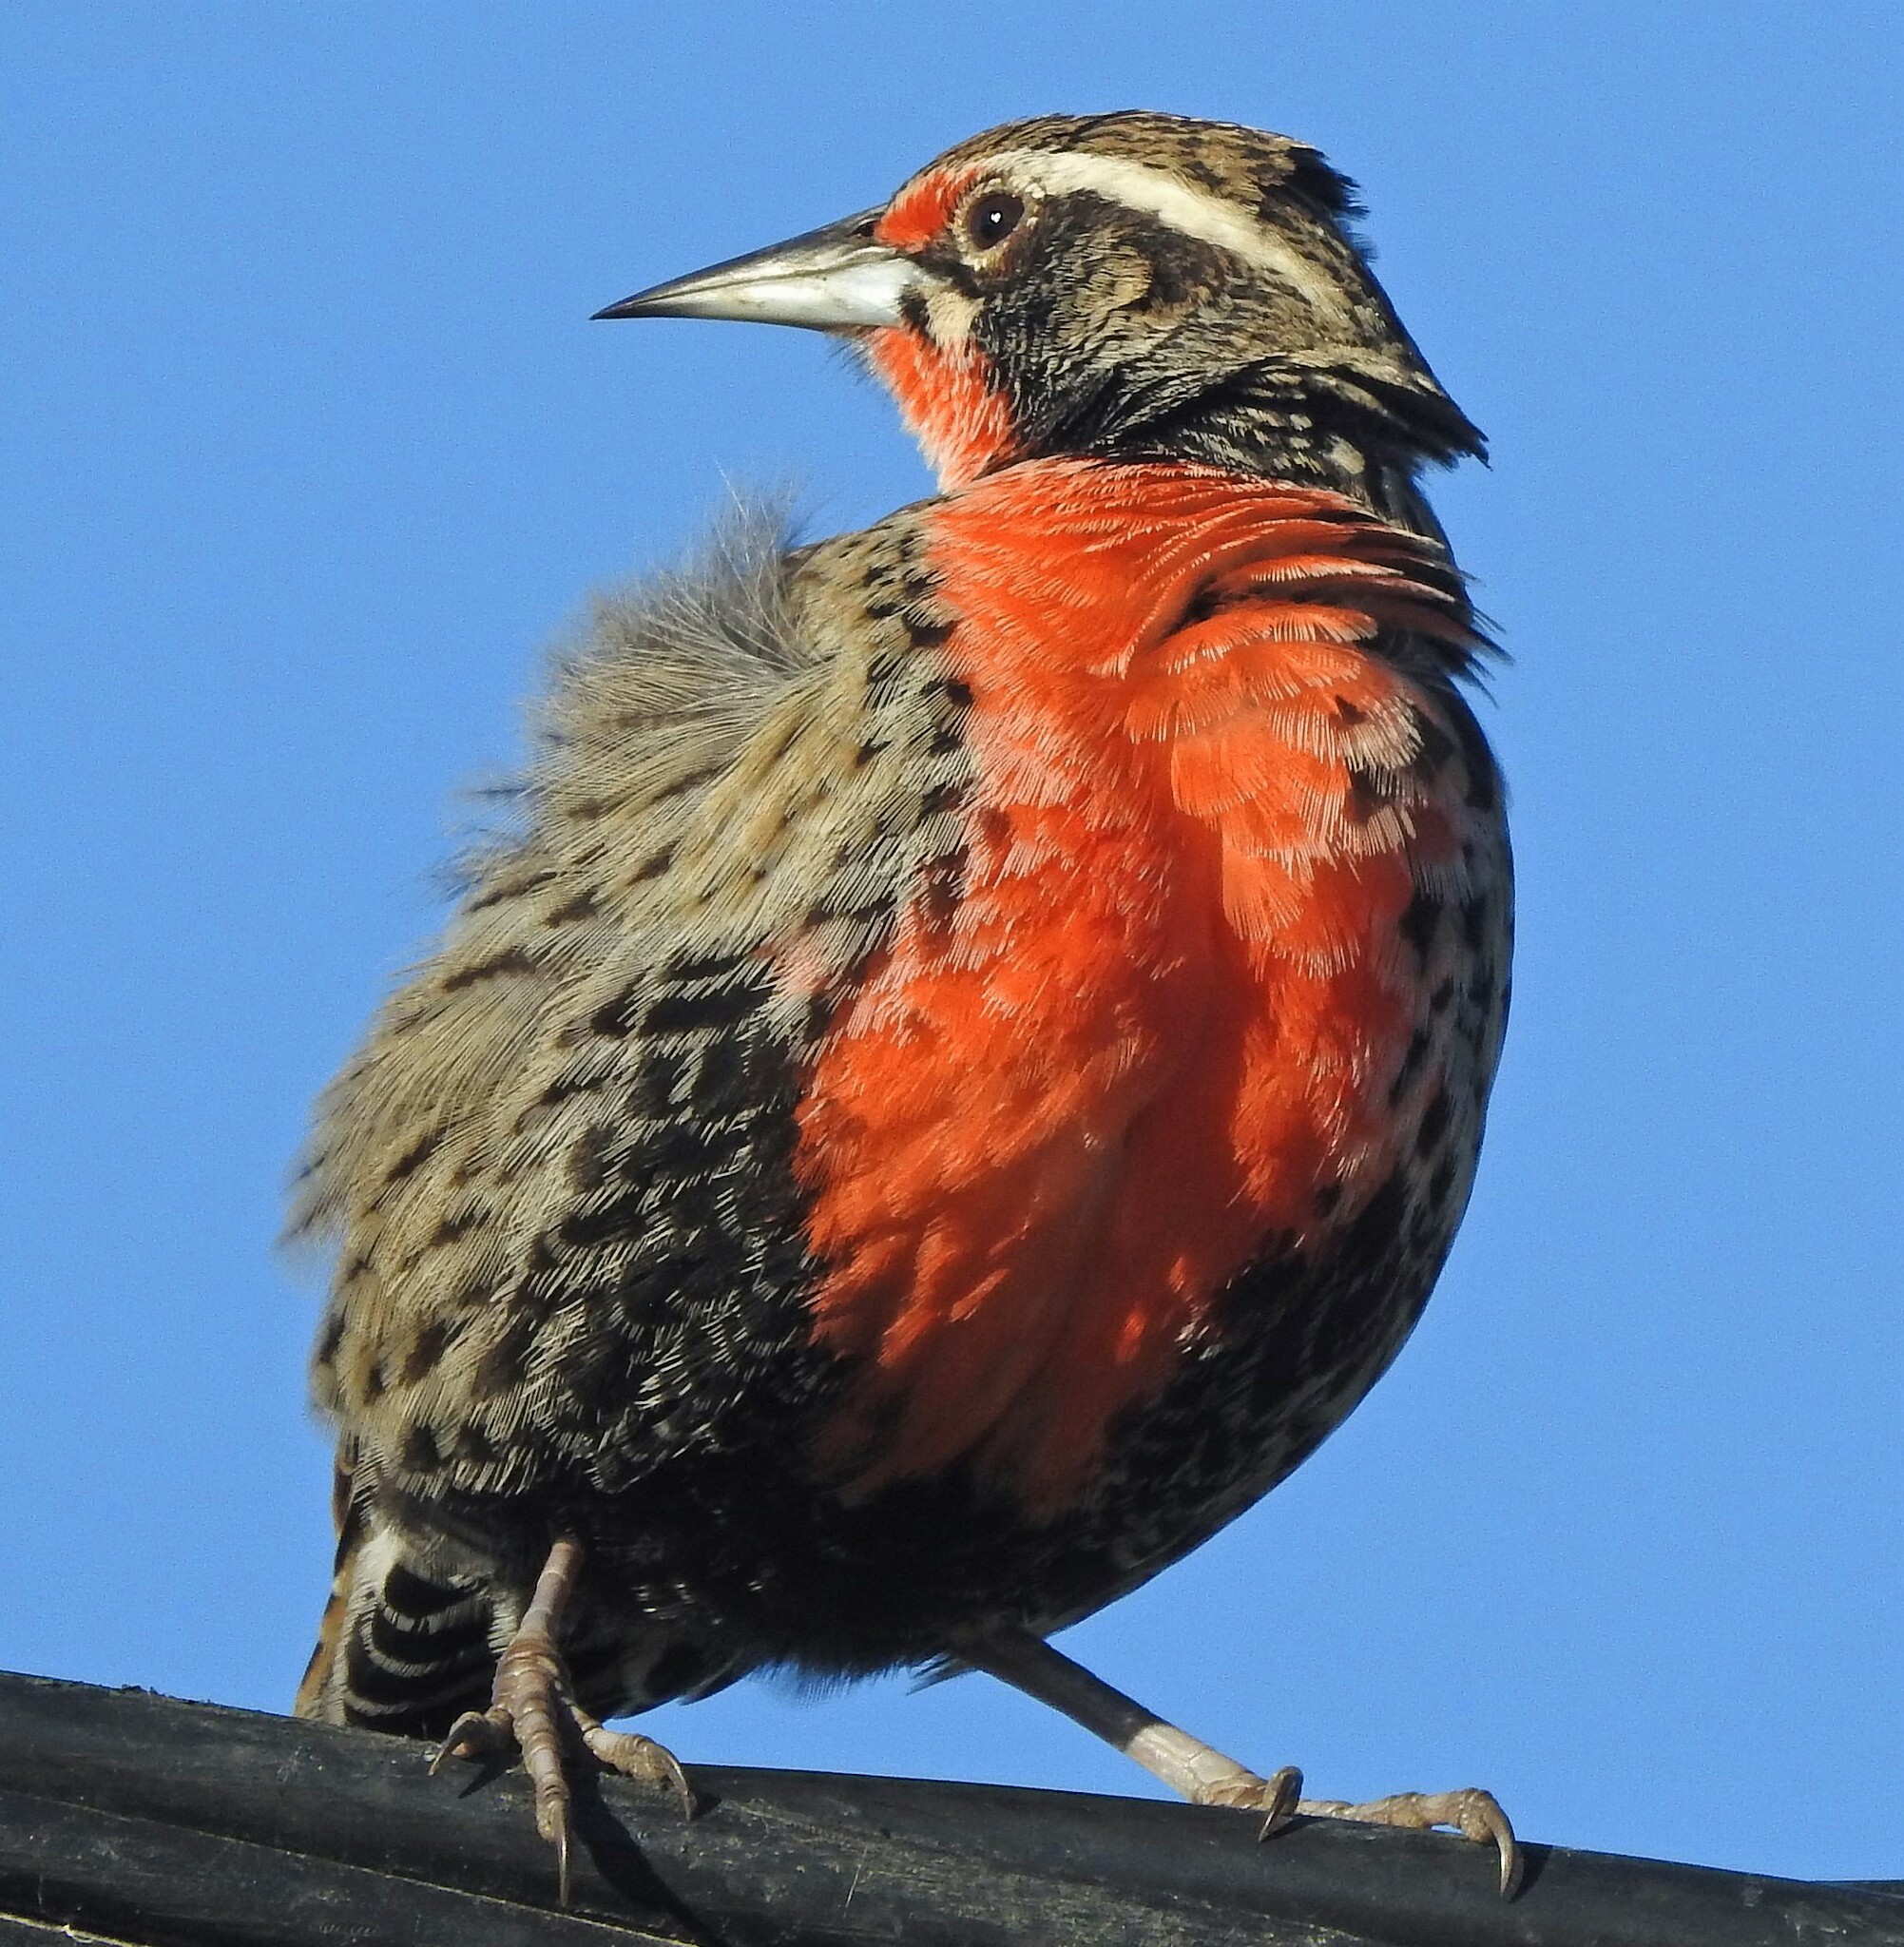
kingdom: Animalia
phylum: Chordata
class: Aves
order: Passeriformes
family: Icteridae
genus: Sturnella
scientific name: Sturnella loyca
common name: Long-tailed meadowlark
